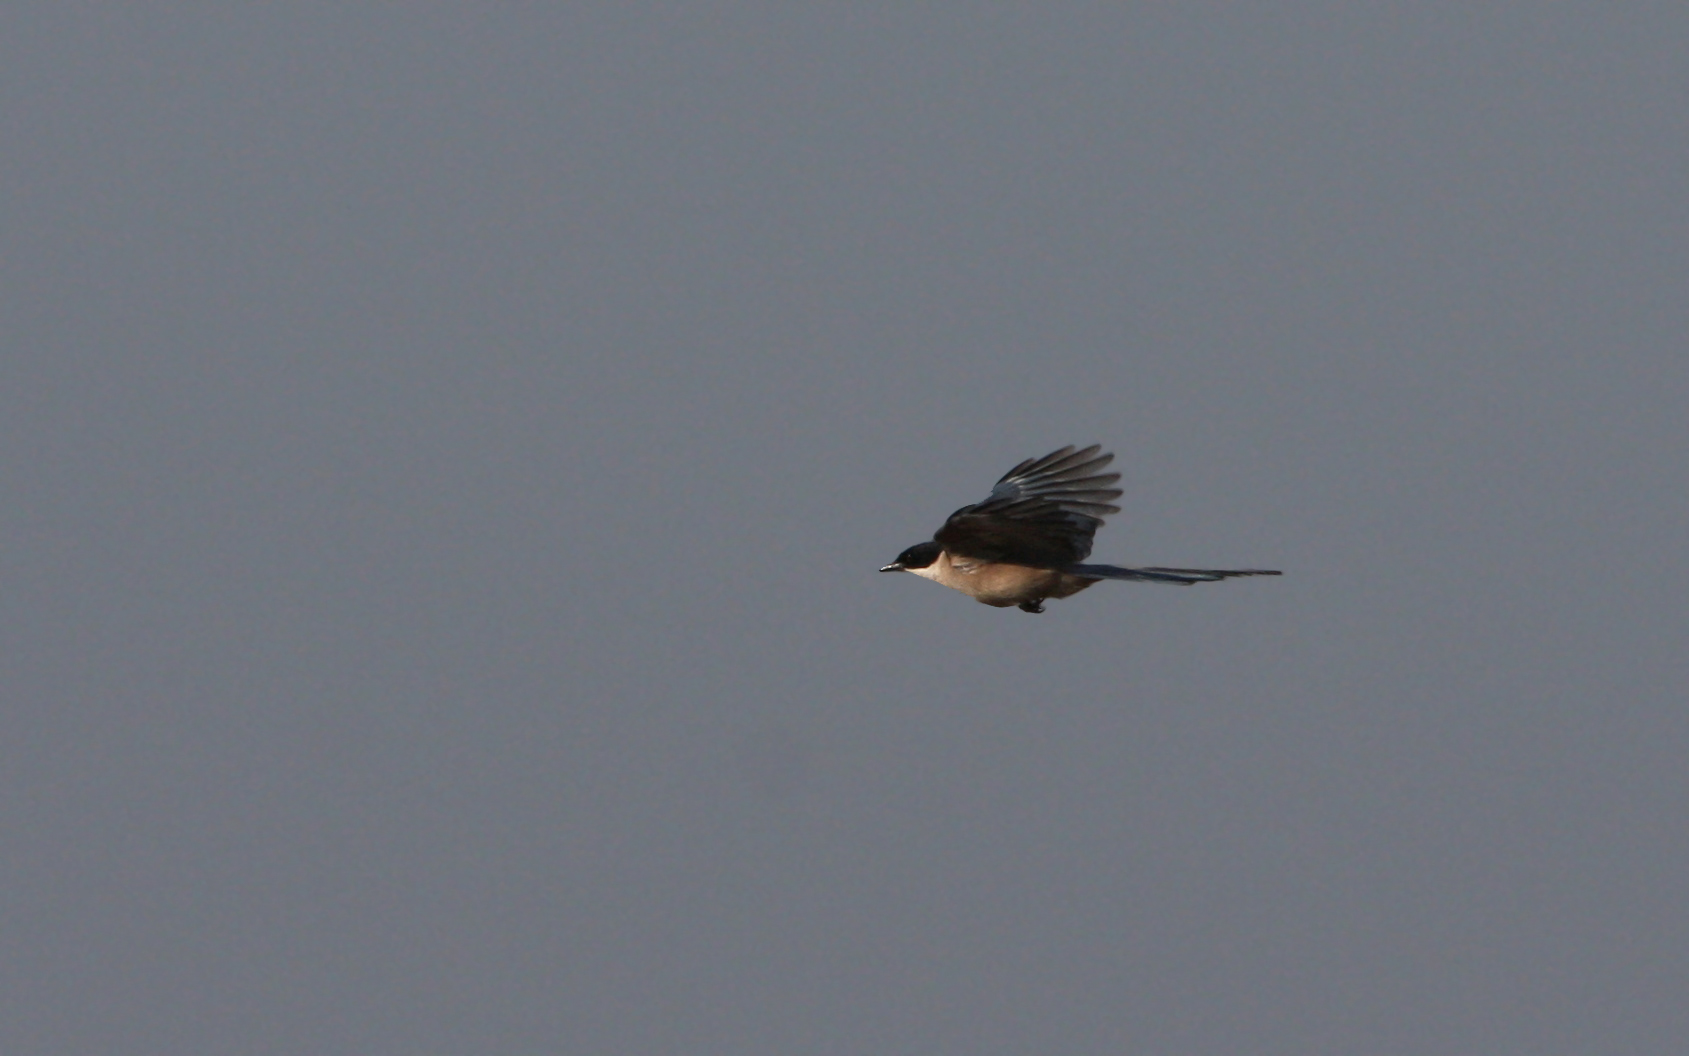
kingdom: Animalia
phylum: Chordata
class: Aves
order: Passeriformes
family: Corvidae
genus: Cyanopica
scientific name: Cyanopica cooki
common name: Iberian magpie
